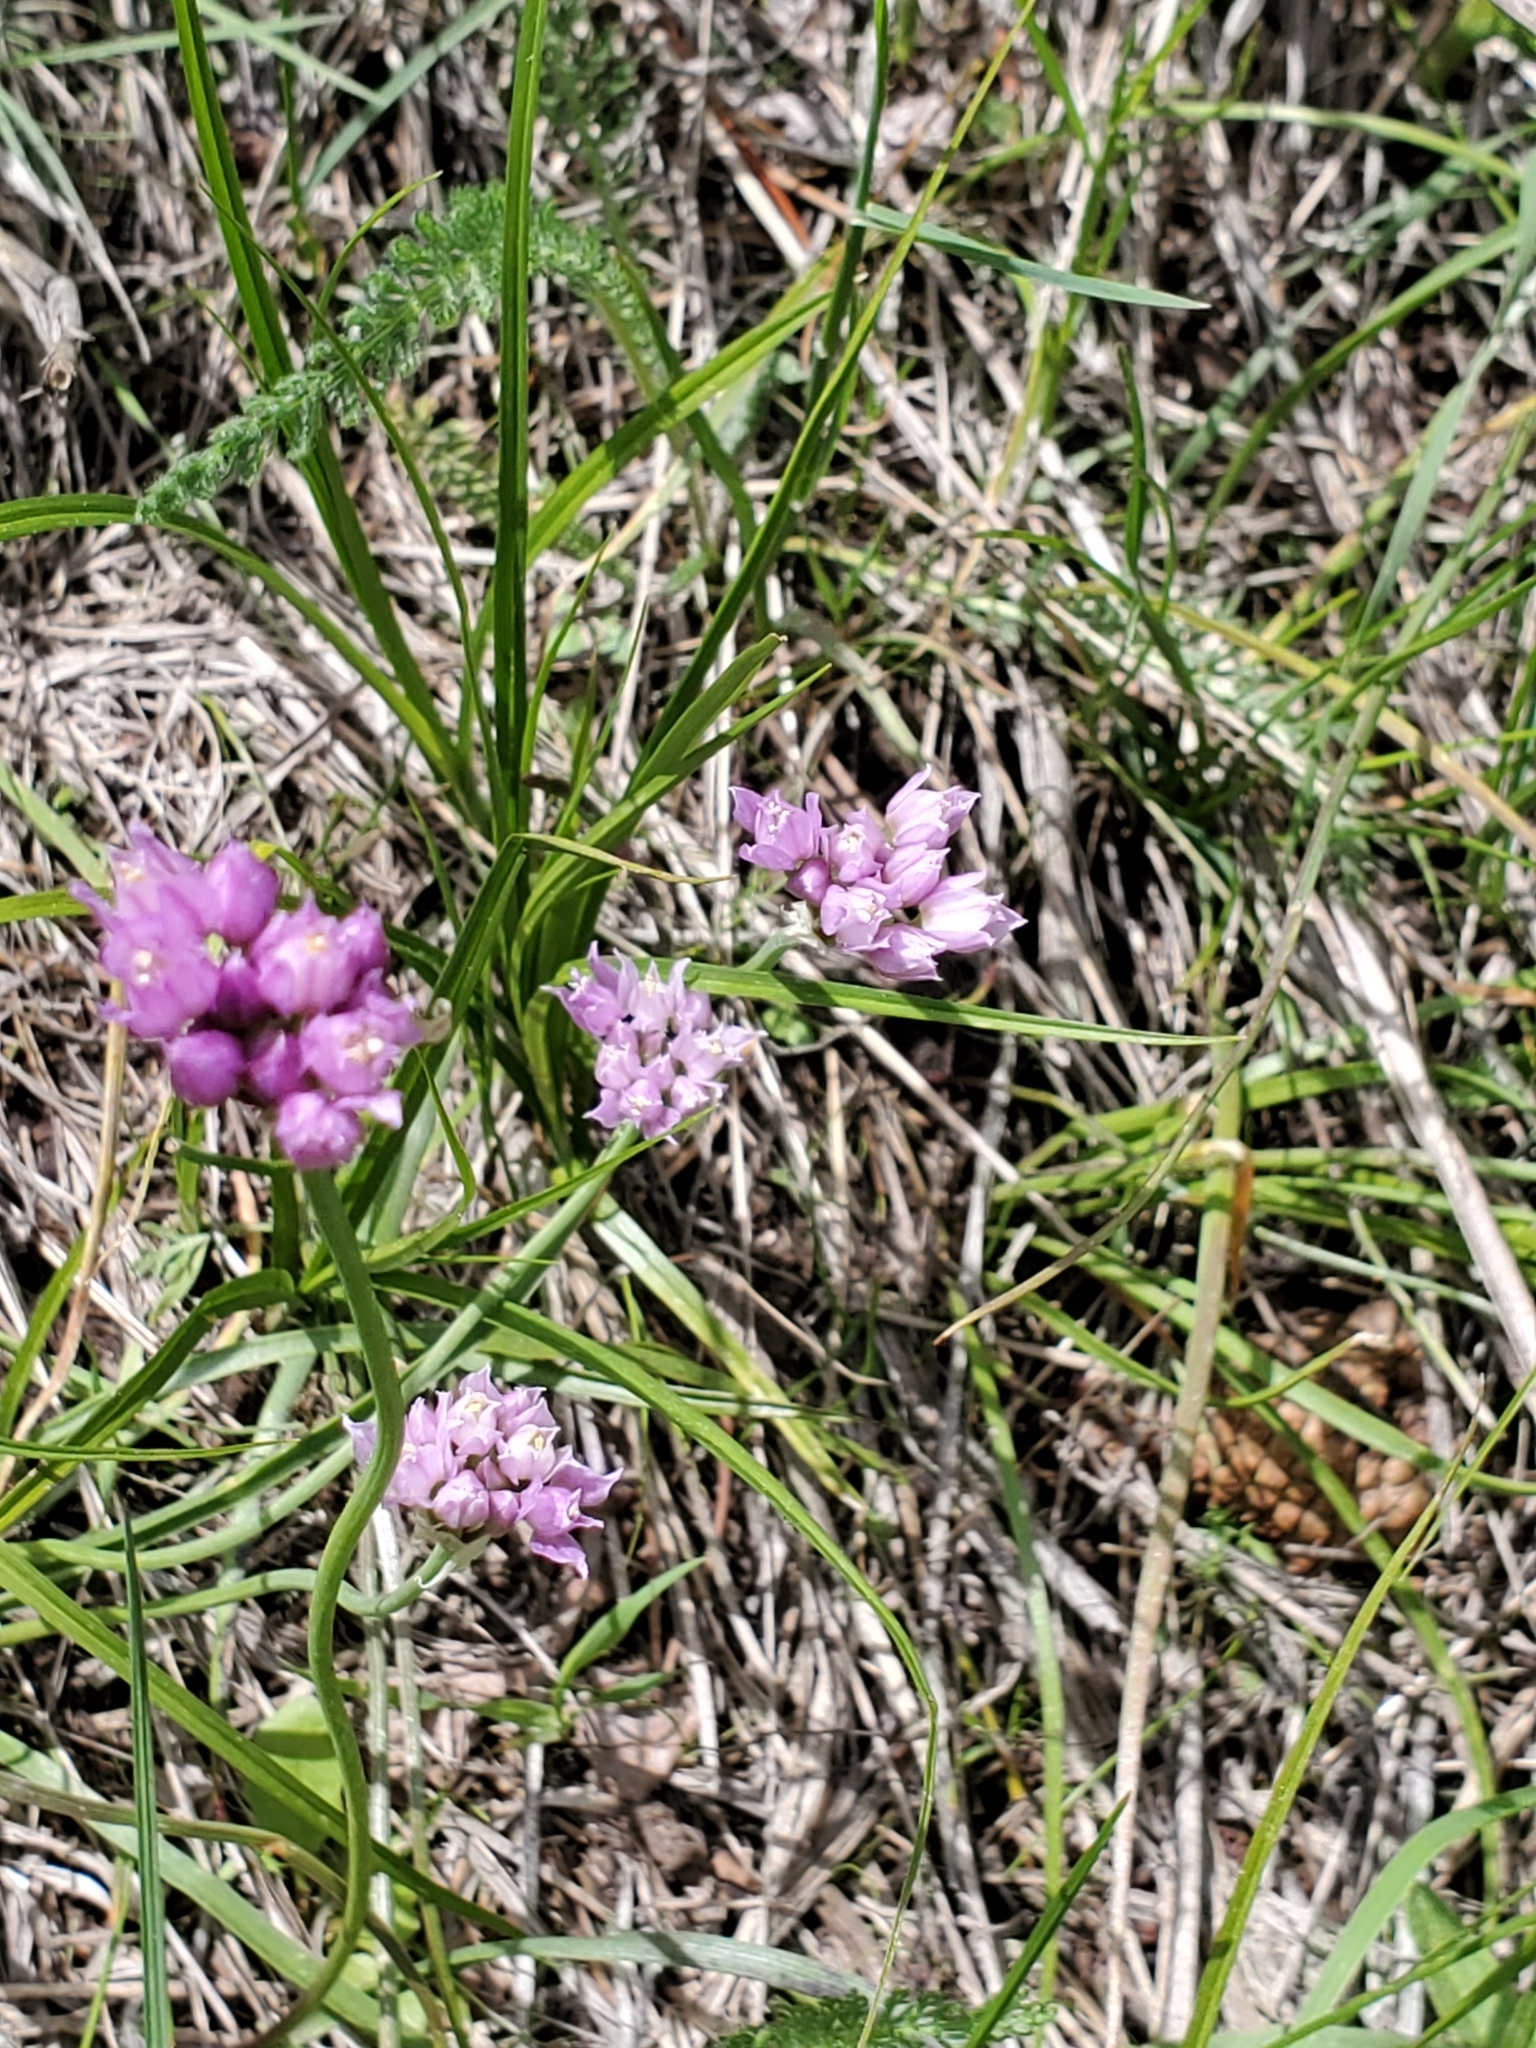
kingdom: Plantae
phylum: Tracheophyta
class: Liliopsida
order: Asparagales
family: Amaryllidaceae
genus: Allium
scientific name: Allium geyeri
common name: Geyer's onion
